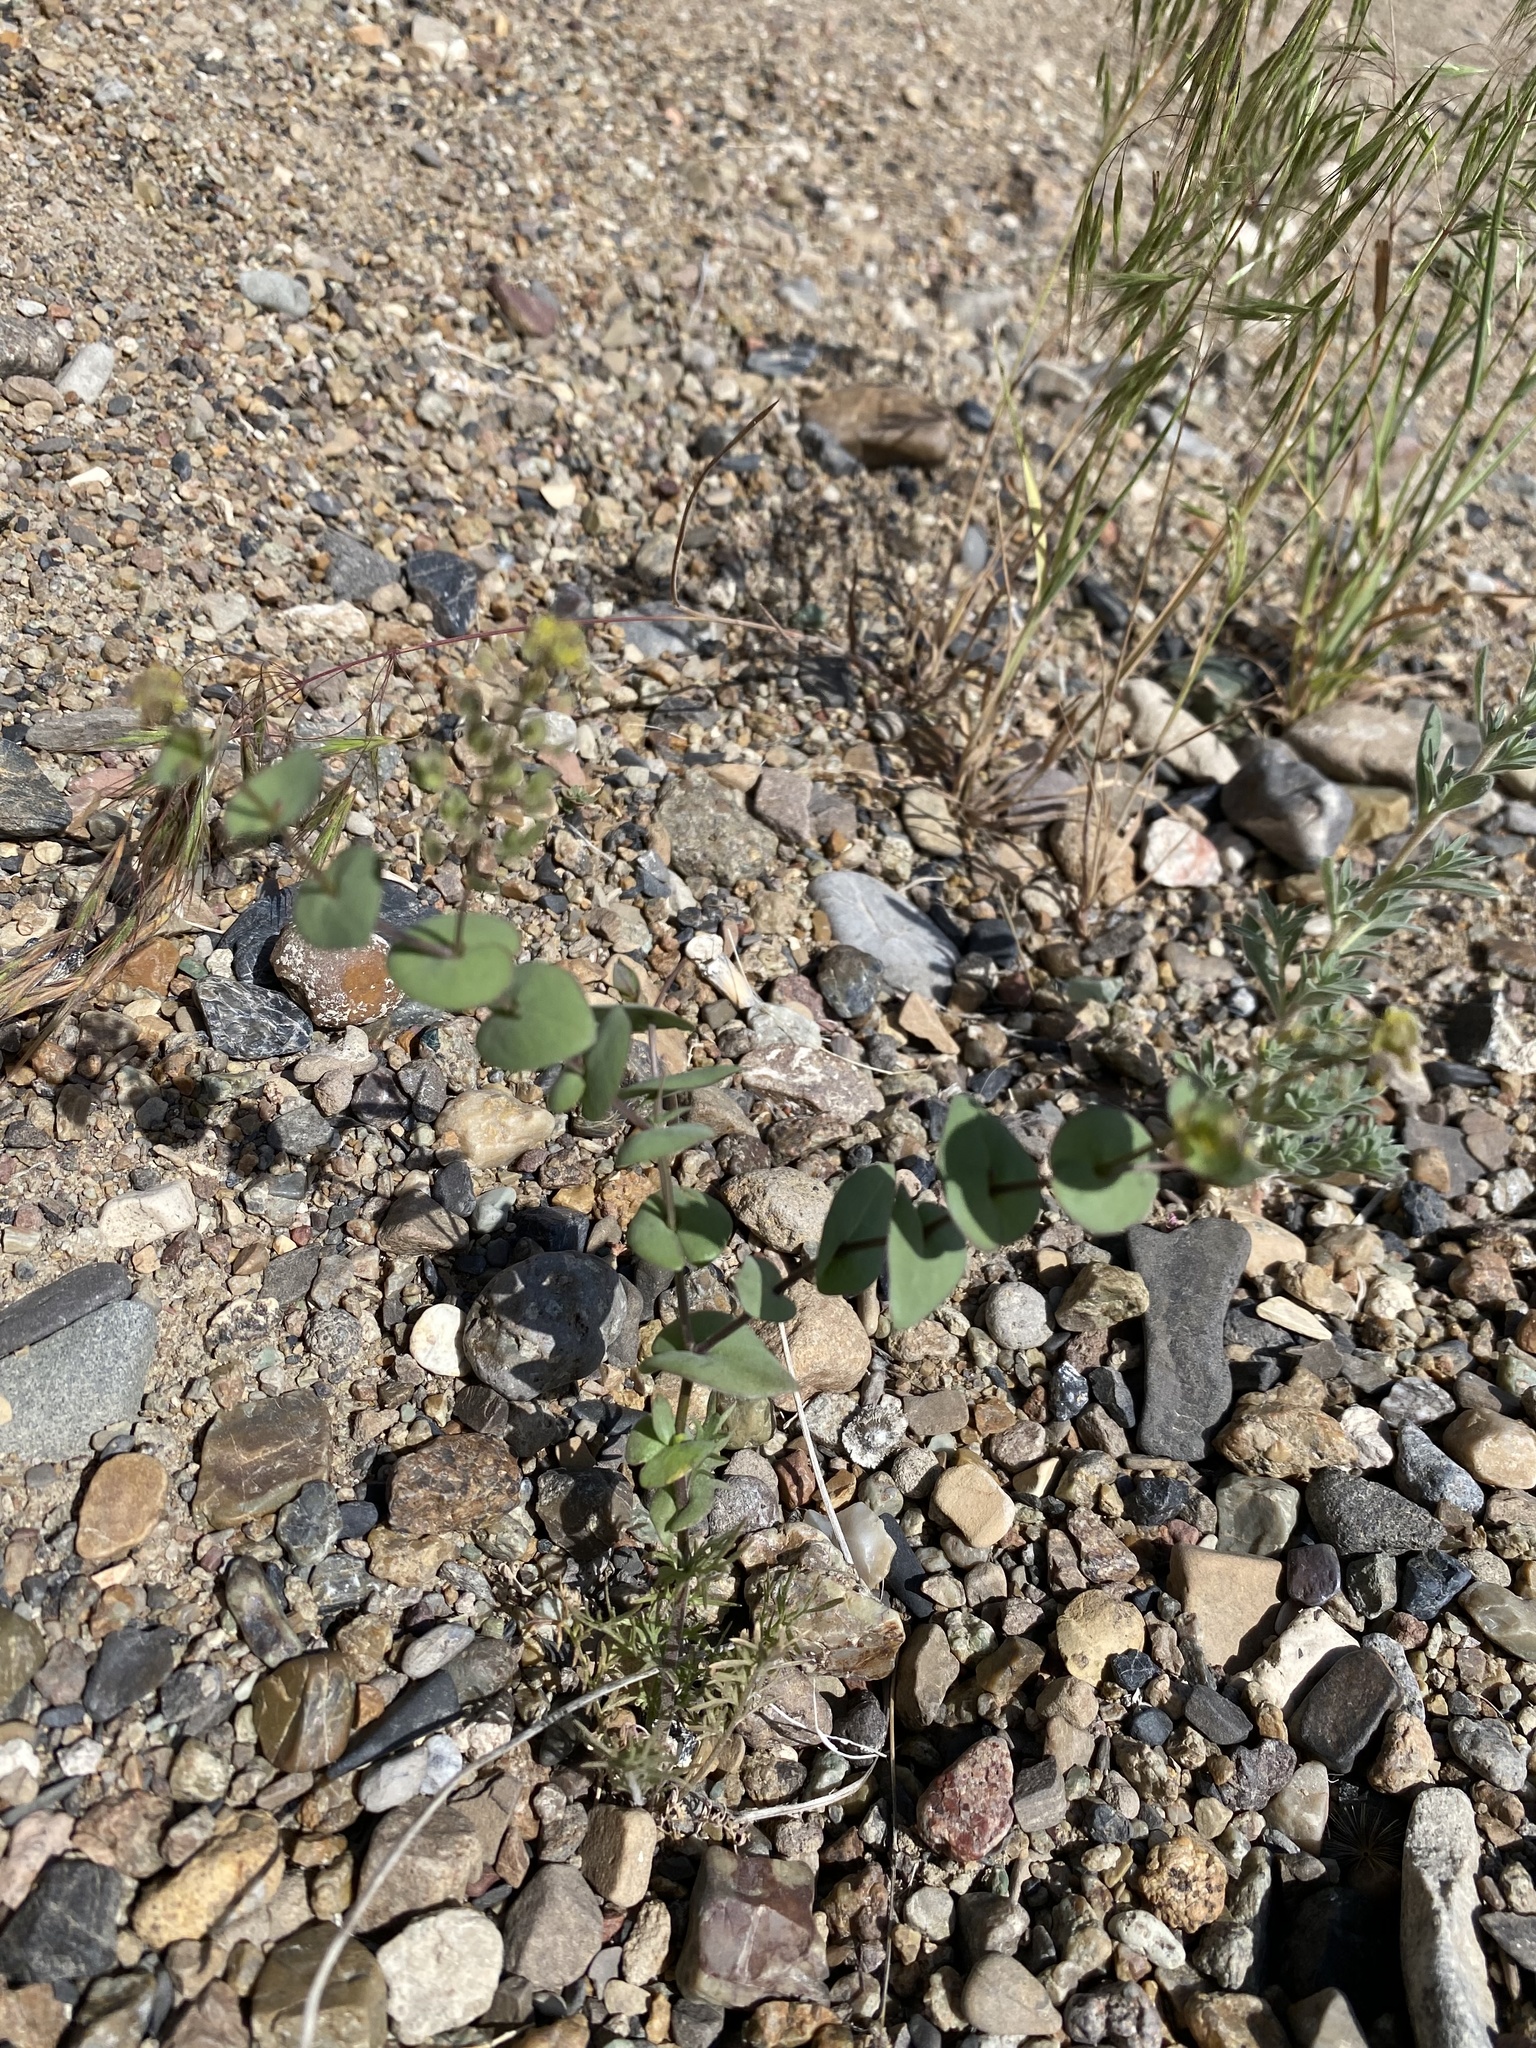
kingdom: Plantae
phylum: Tracheophyta
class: Magnoliopsida
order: Brassicales
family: Brassicaceae
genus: Lepidium
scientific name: Lepidium perfoliatum
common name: Perfoliate pepperwort
